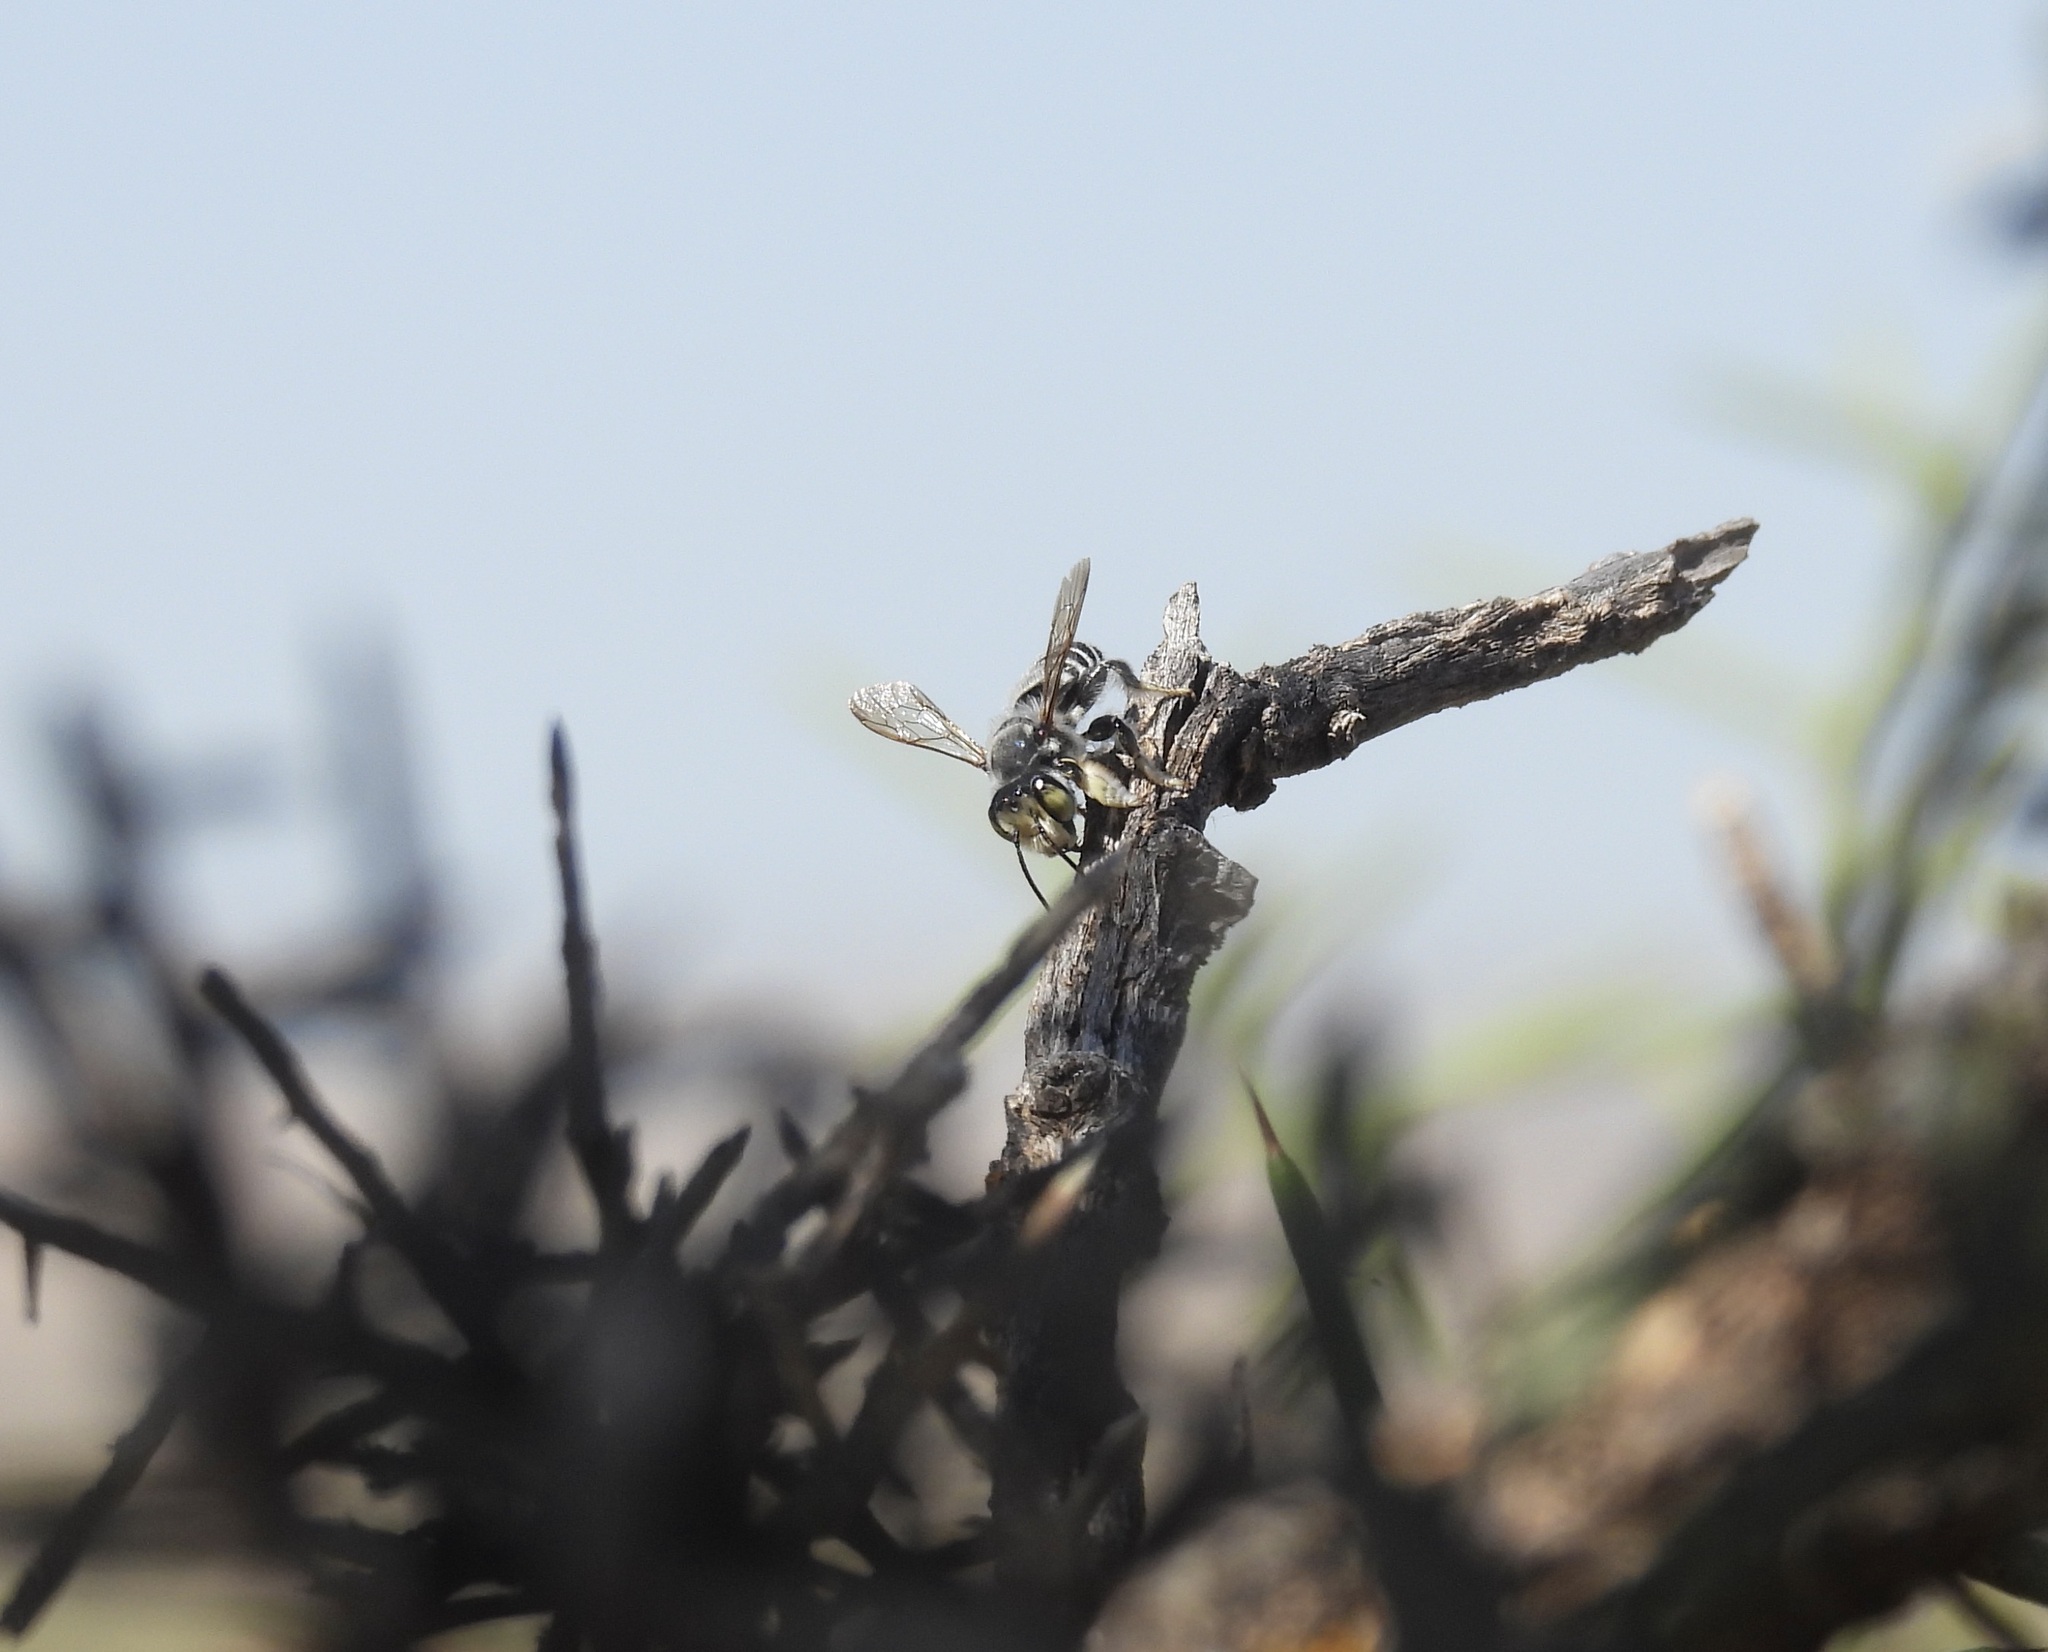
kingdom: Animalia
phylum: Arthropoda
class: Insecta
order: Hymenoptera
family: Megachilidae
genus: Megachile
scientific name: Megachile sidalceae
